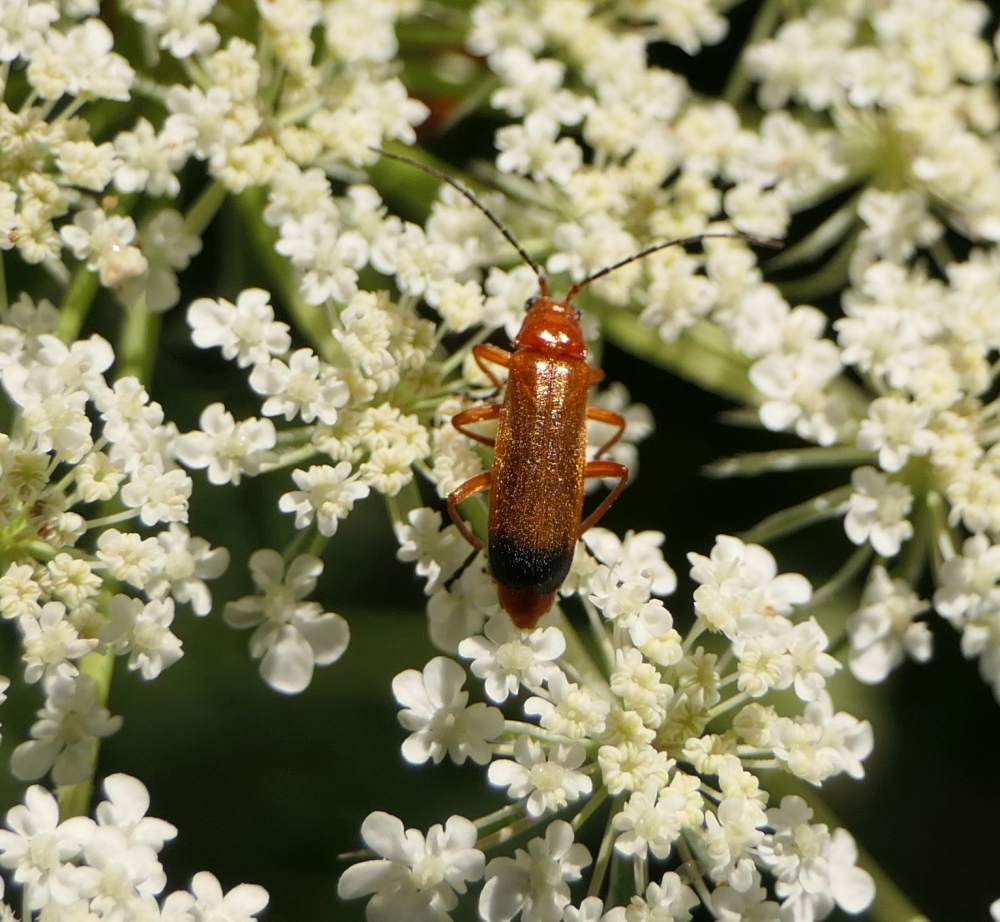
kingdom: Animalia
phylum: Arthropoda
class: Insecta
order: Coleoptera
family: Cantharidae
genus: Rhagonycha
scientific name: Rhagonycha fulva
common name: Common red soldier beetle
